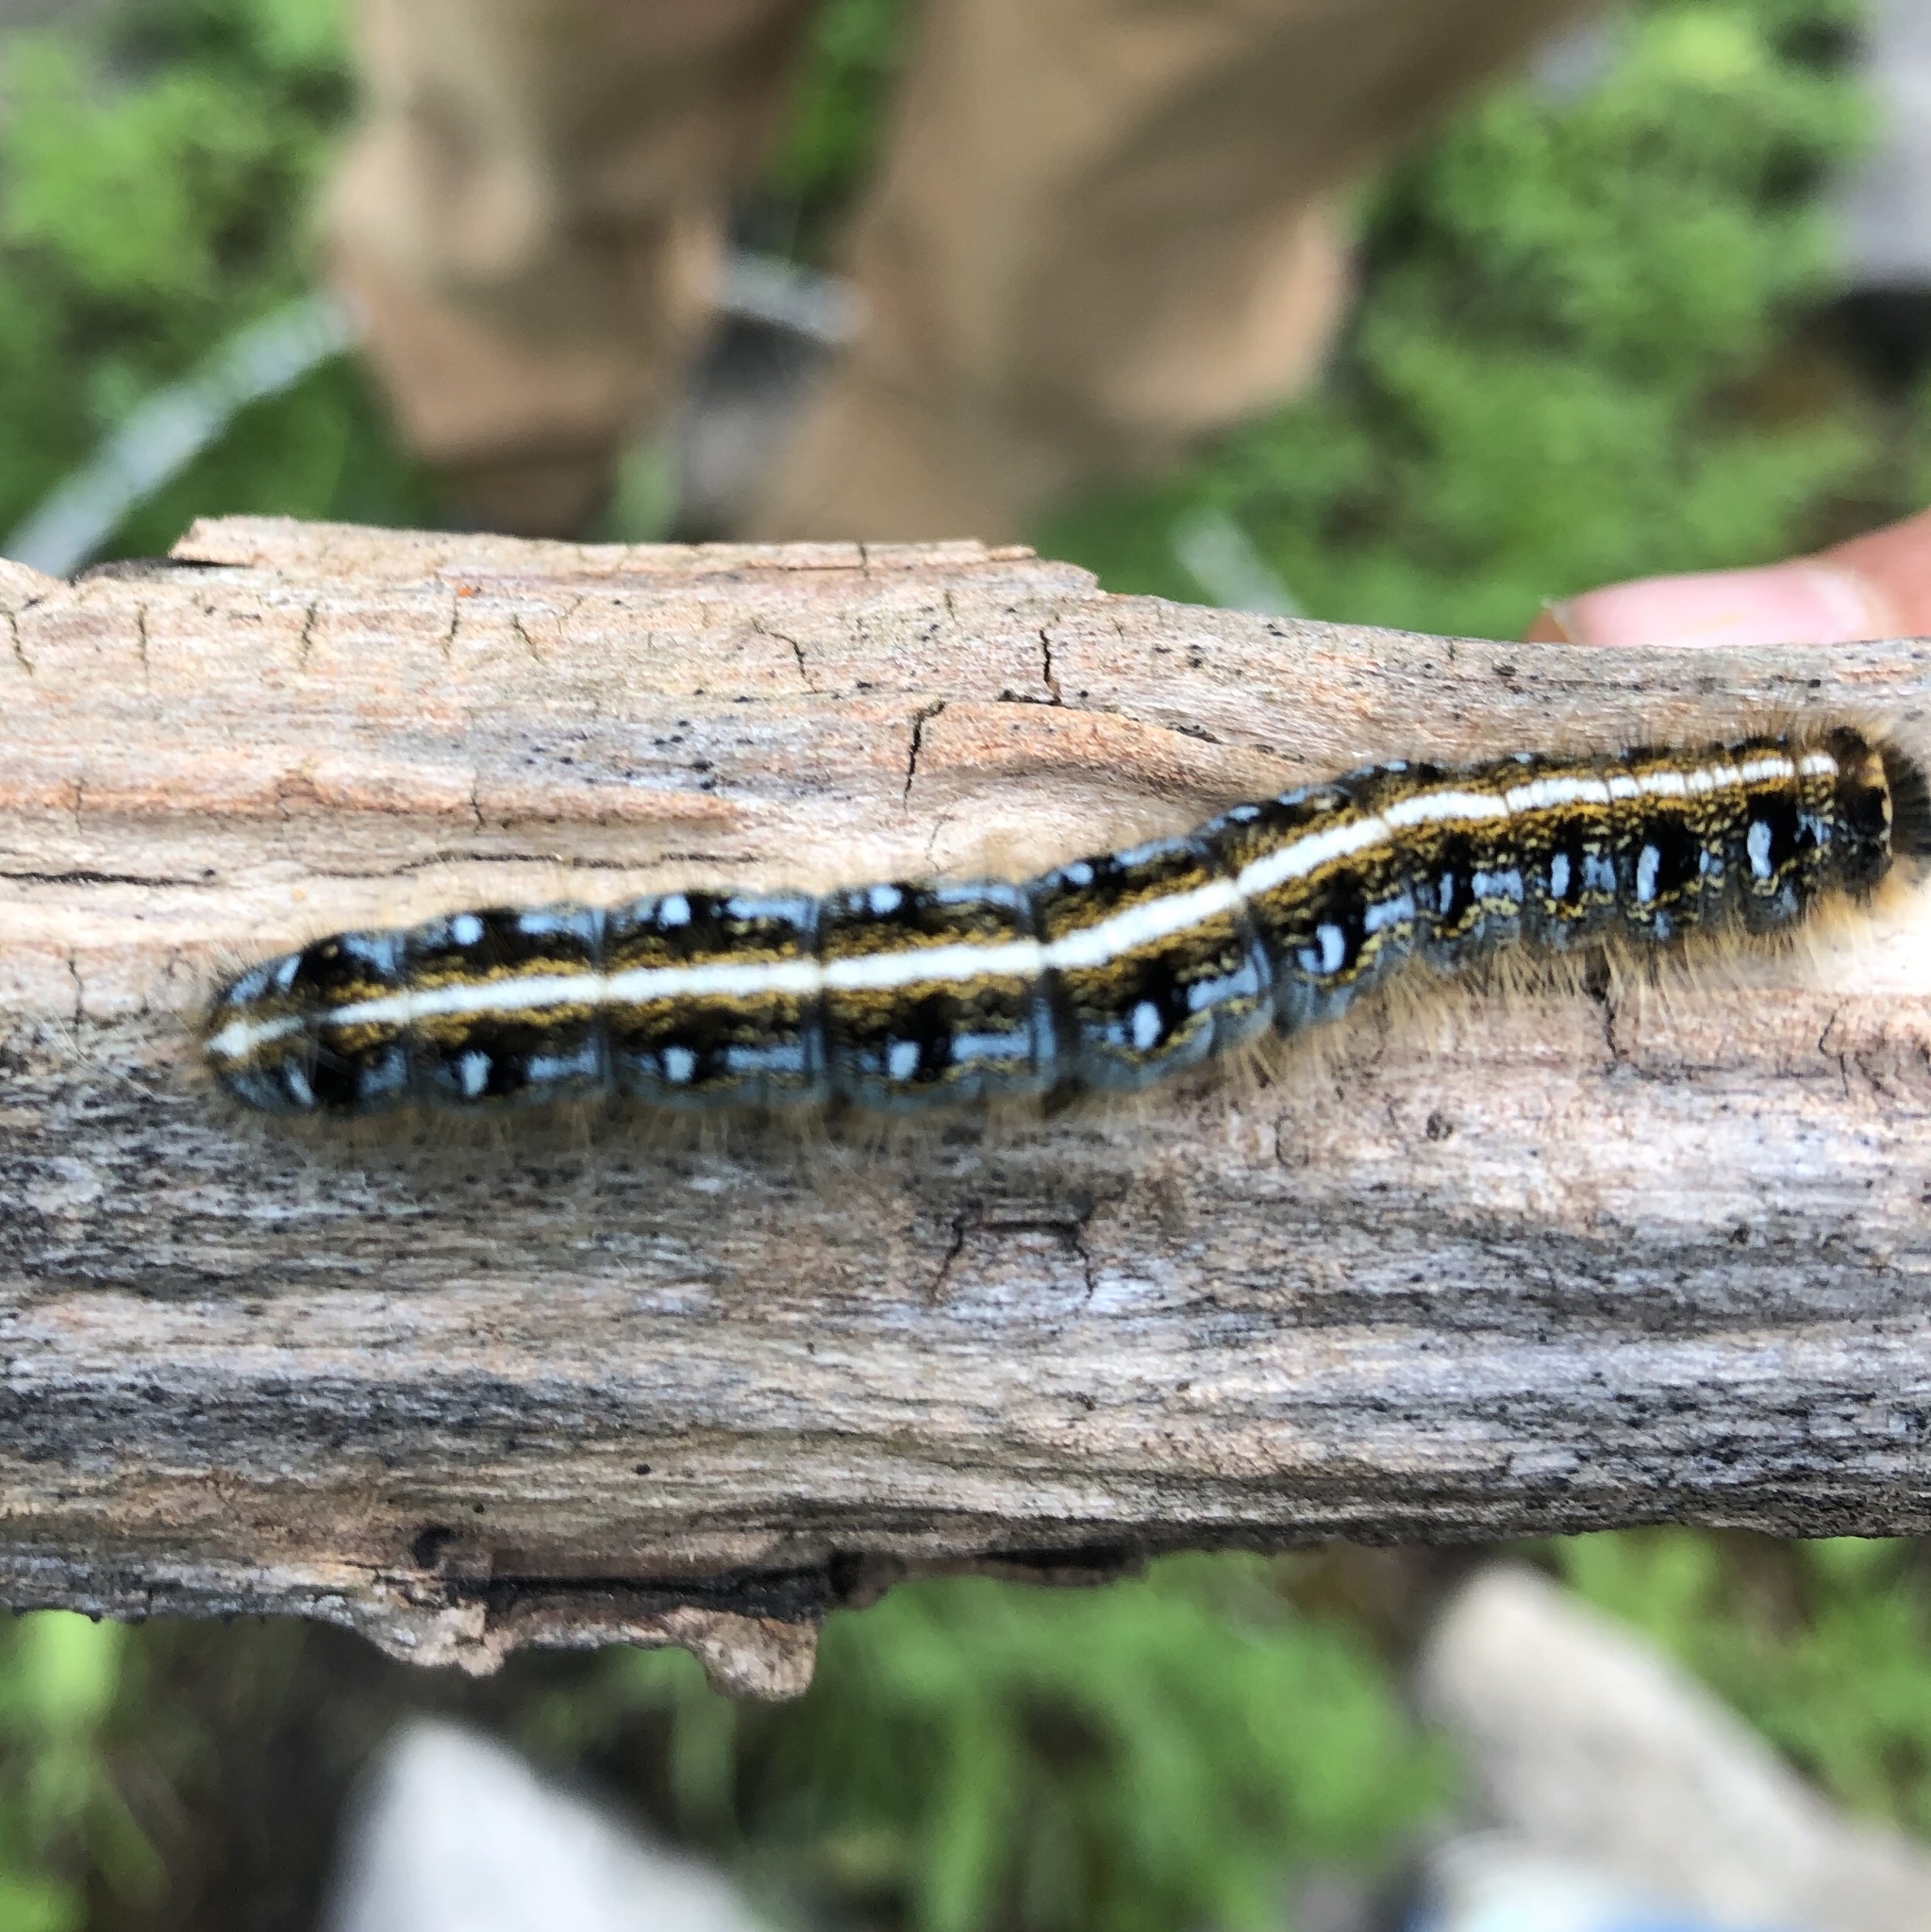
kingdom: Animalia
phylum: Arthropoda
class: Insecta
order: Lepidoptera
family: Lasiocampidae
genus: Malacosoma
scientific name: Malacosoma americana
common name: Eastern tent caterpillar moth
